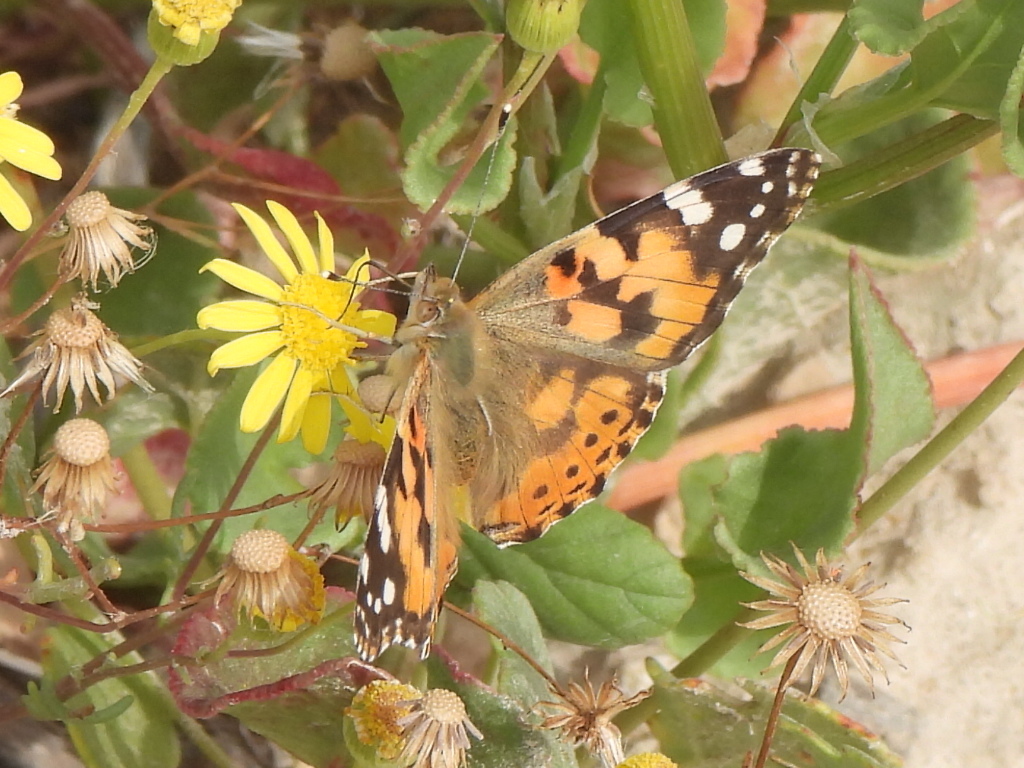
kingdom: Animalia
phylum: Arthropoda
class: Insecta
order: Lepidoptera
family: Nymphalidae
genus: Vanessa
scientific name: Vanessa cardui
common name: Painted lady
